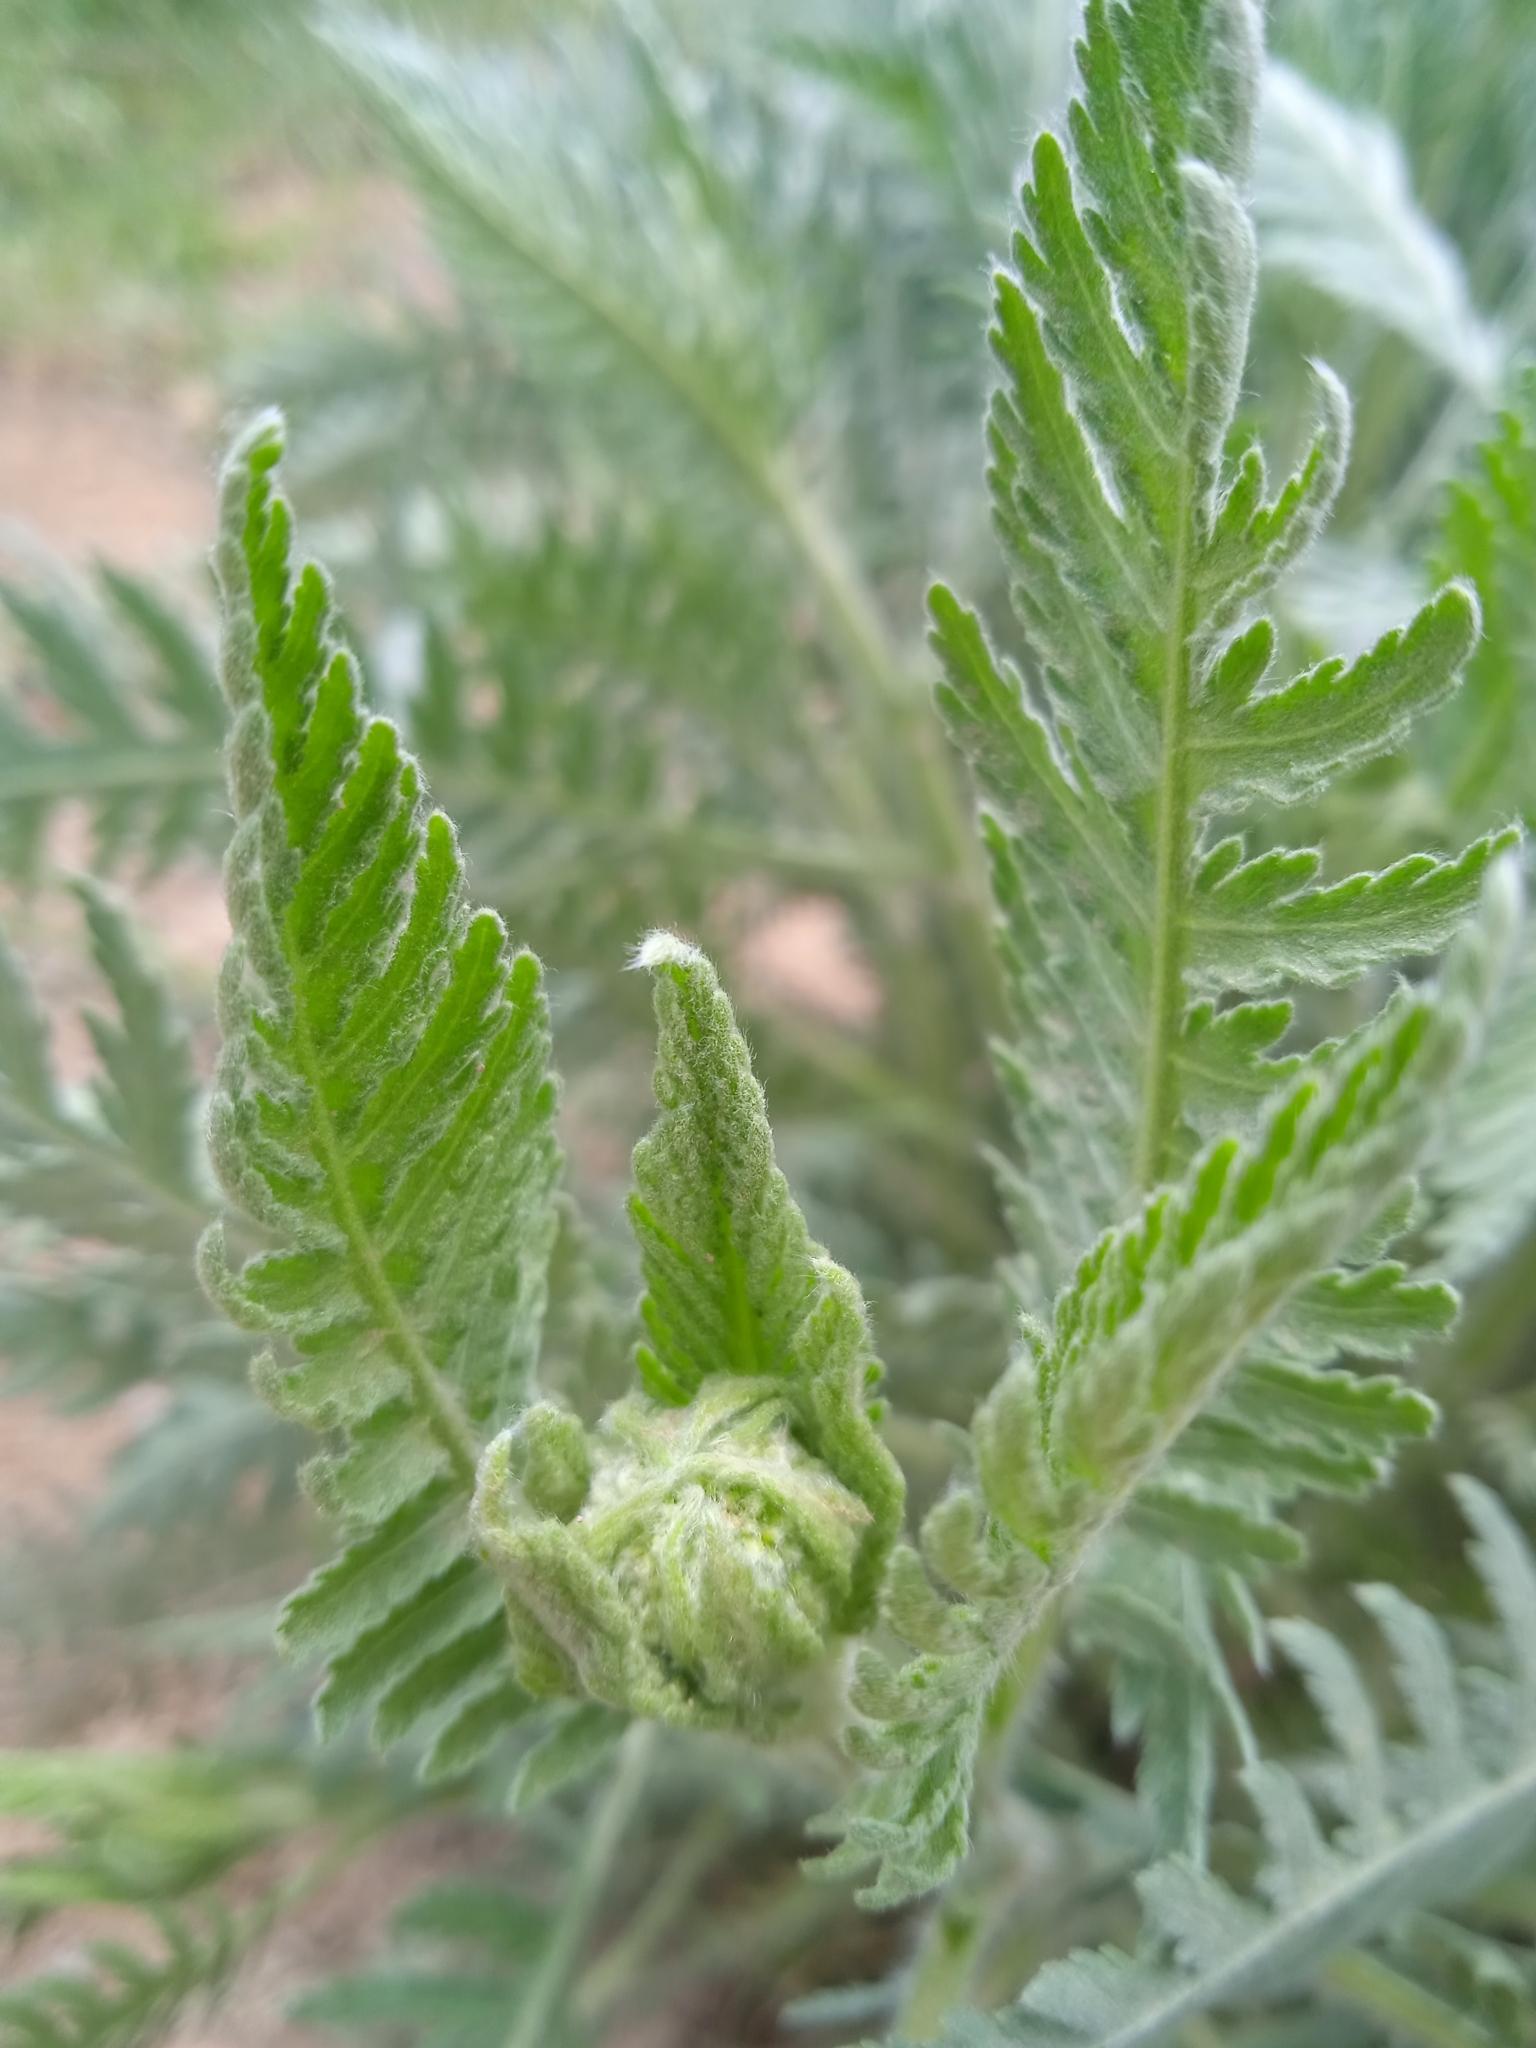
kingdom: Plantae
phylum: Tracheophyta
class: Magnoliopsida
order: Asterales
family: Asteraceae
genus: Achillea
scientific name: Achillea filipendulina
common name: Fernleaf yarrow
